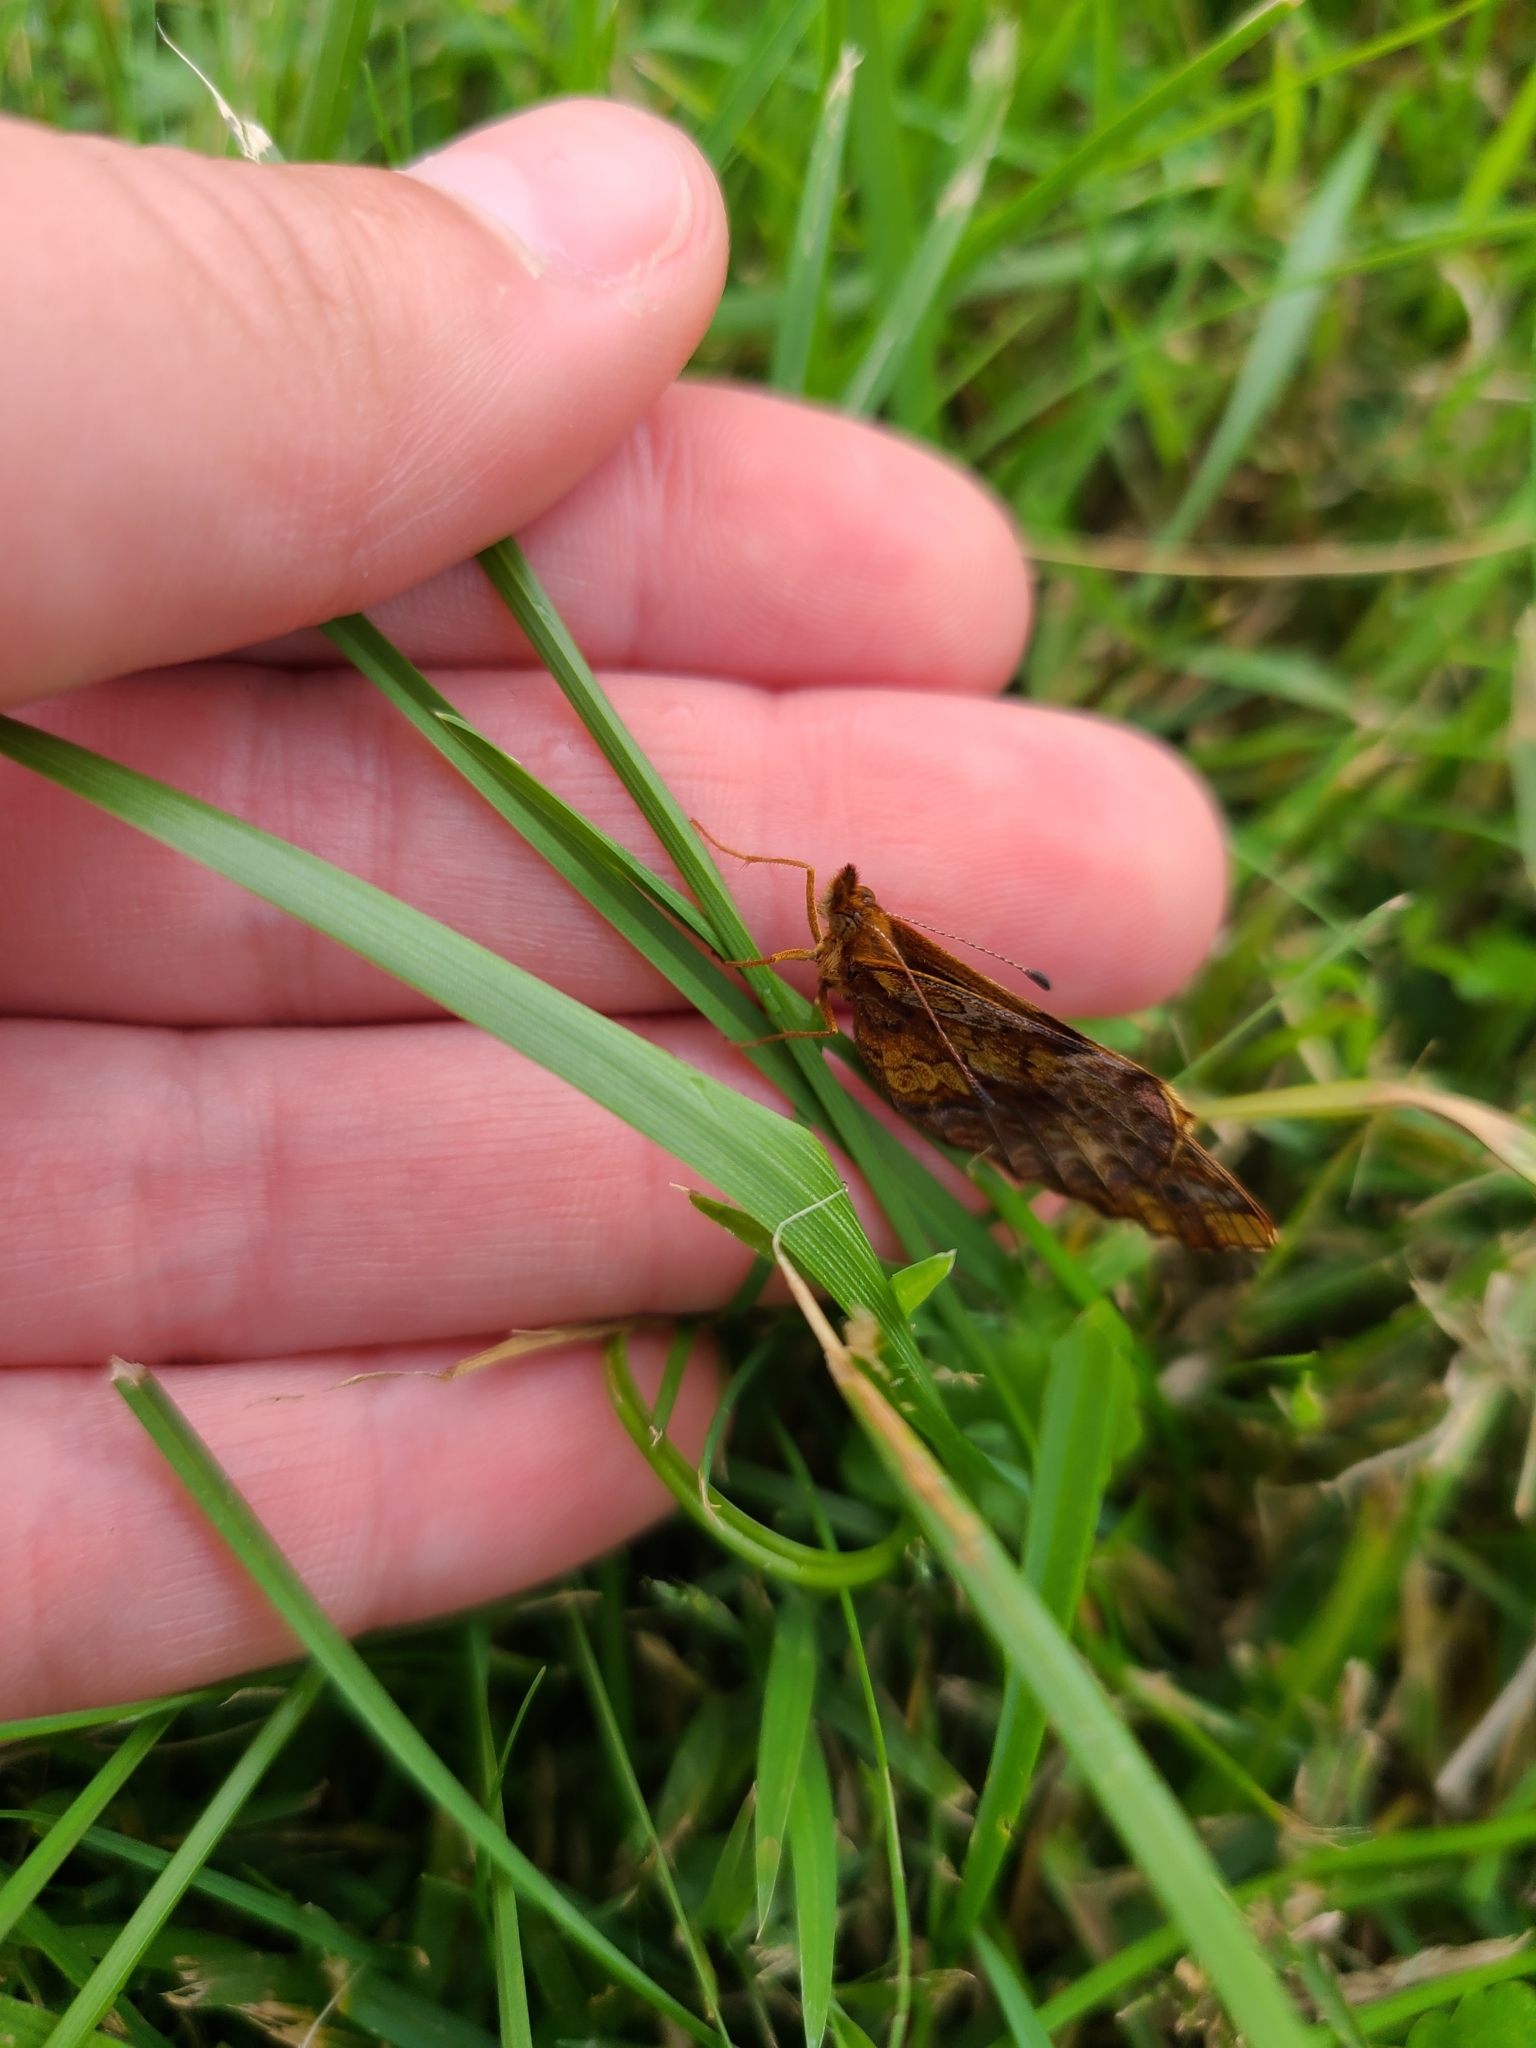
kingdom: Animalia
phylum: Arthropoda
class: Insecta
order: Lepidoptera
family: Nymphalidae
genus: Clossiana
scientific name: Clossiana toddi
